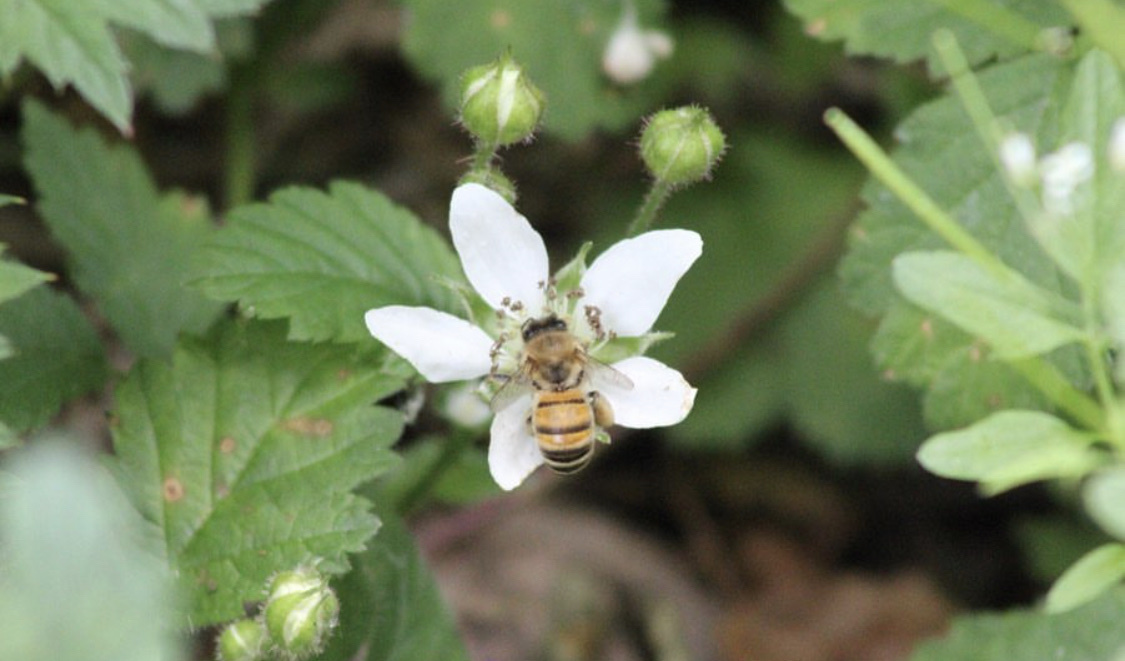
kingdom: Animalia
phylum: Arthropoda
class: Insecta
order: Hymenoptera
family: Apidae
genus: Apis
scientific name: Apis mellifera
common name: Honey bee
